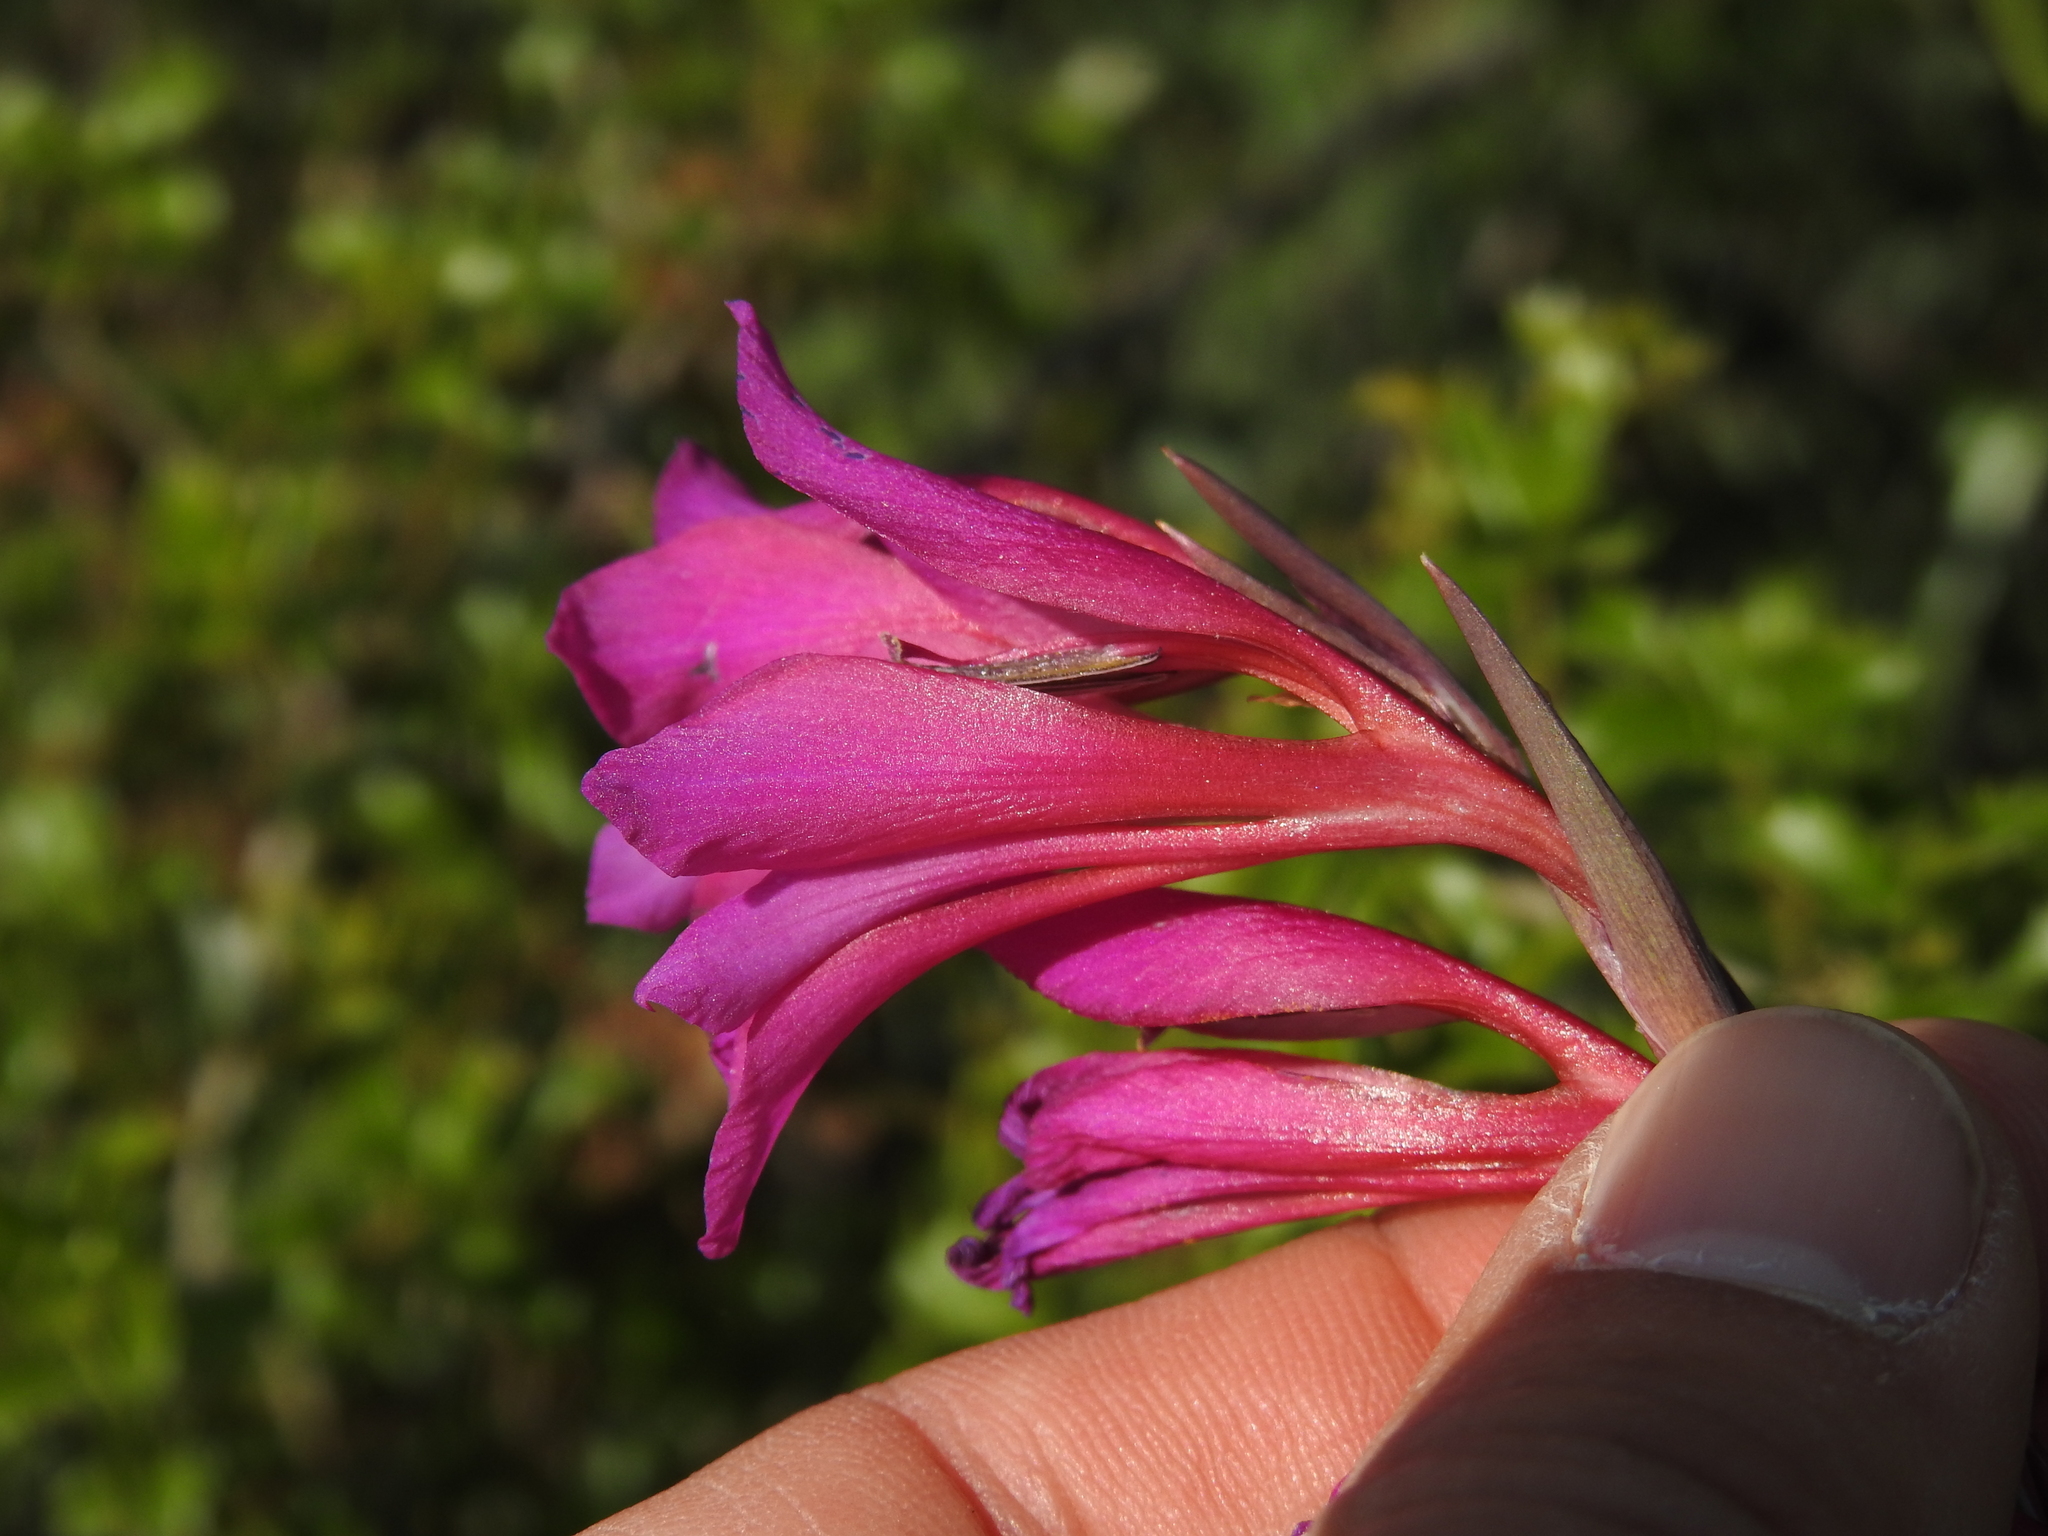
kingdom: Plantae
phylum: Tracheophyta
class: Liliopsida
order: Asparagales
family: Iridaceae
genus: Gladiolus
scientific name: Gladiolus dubius
